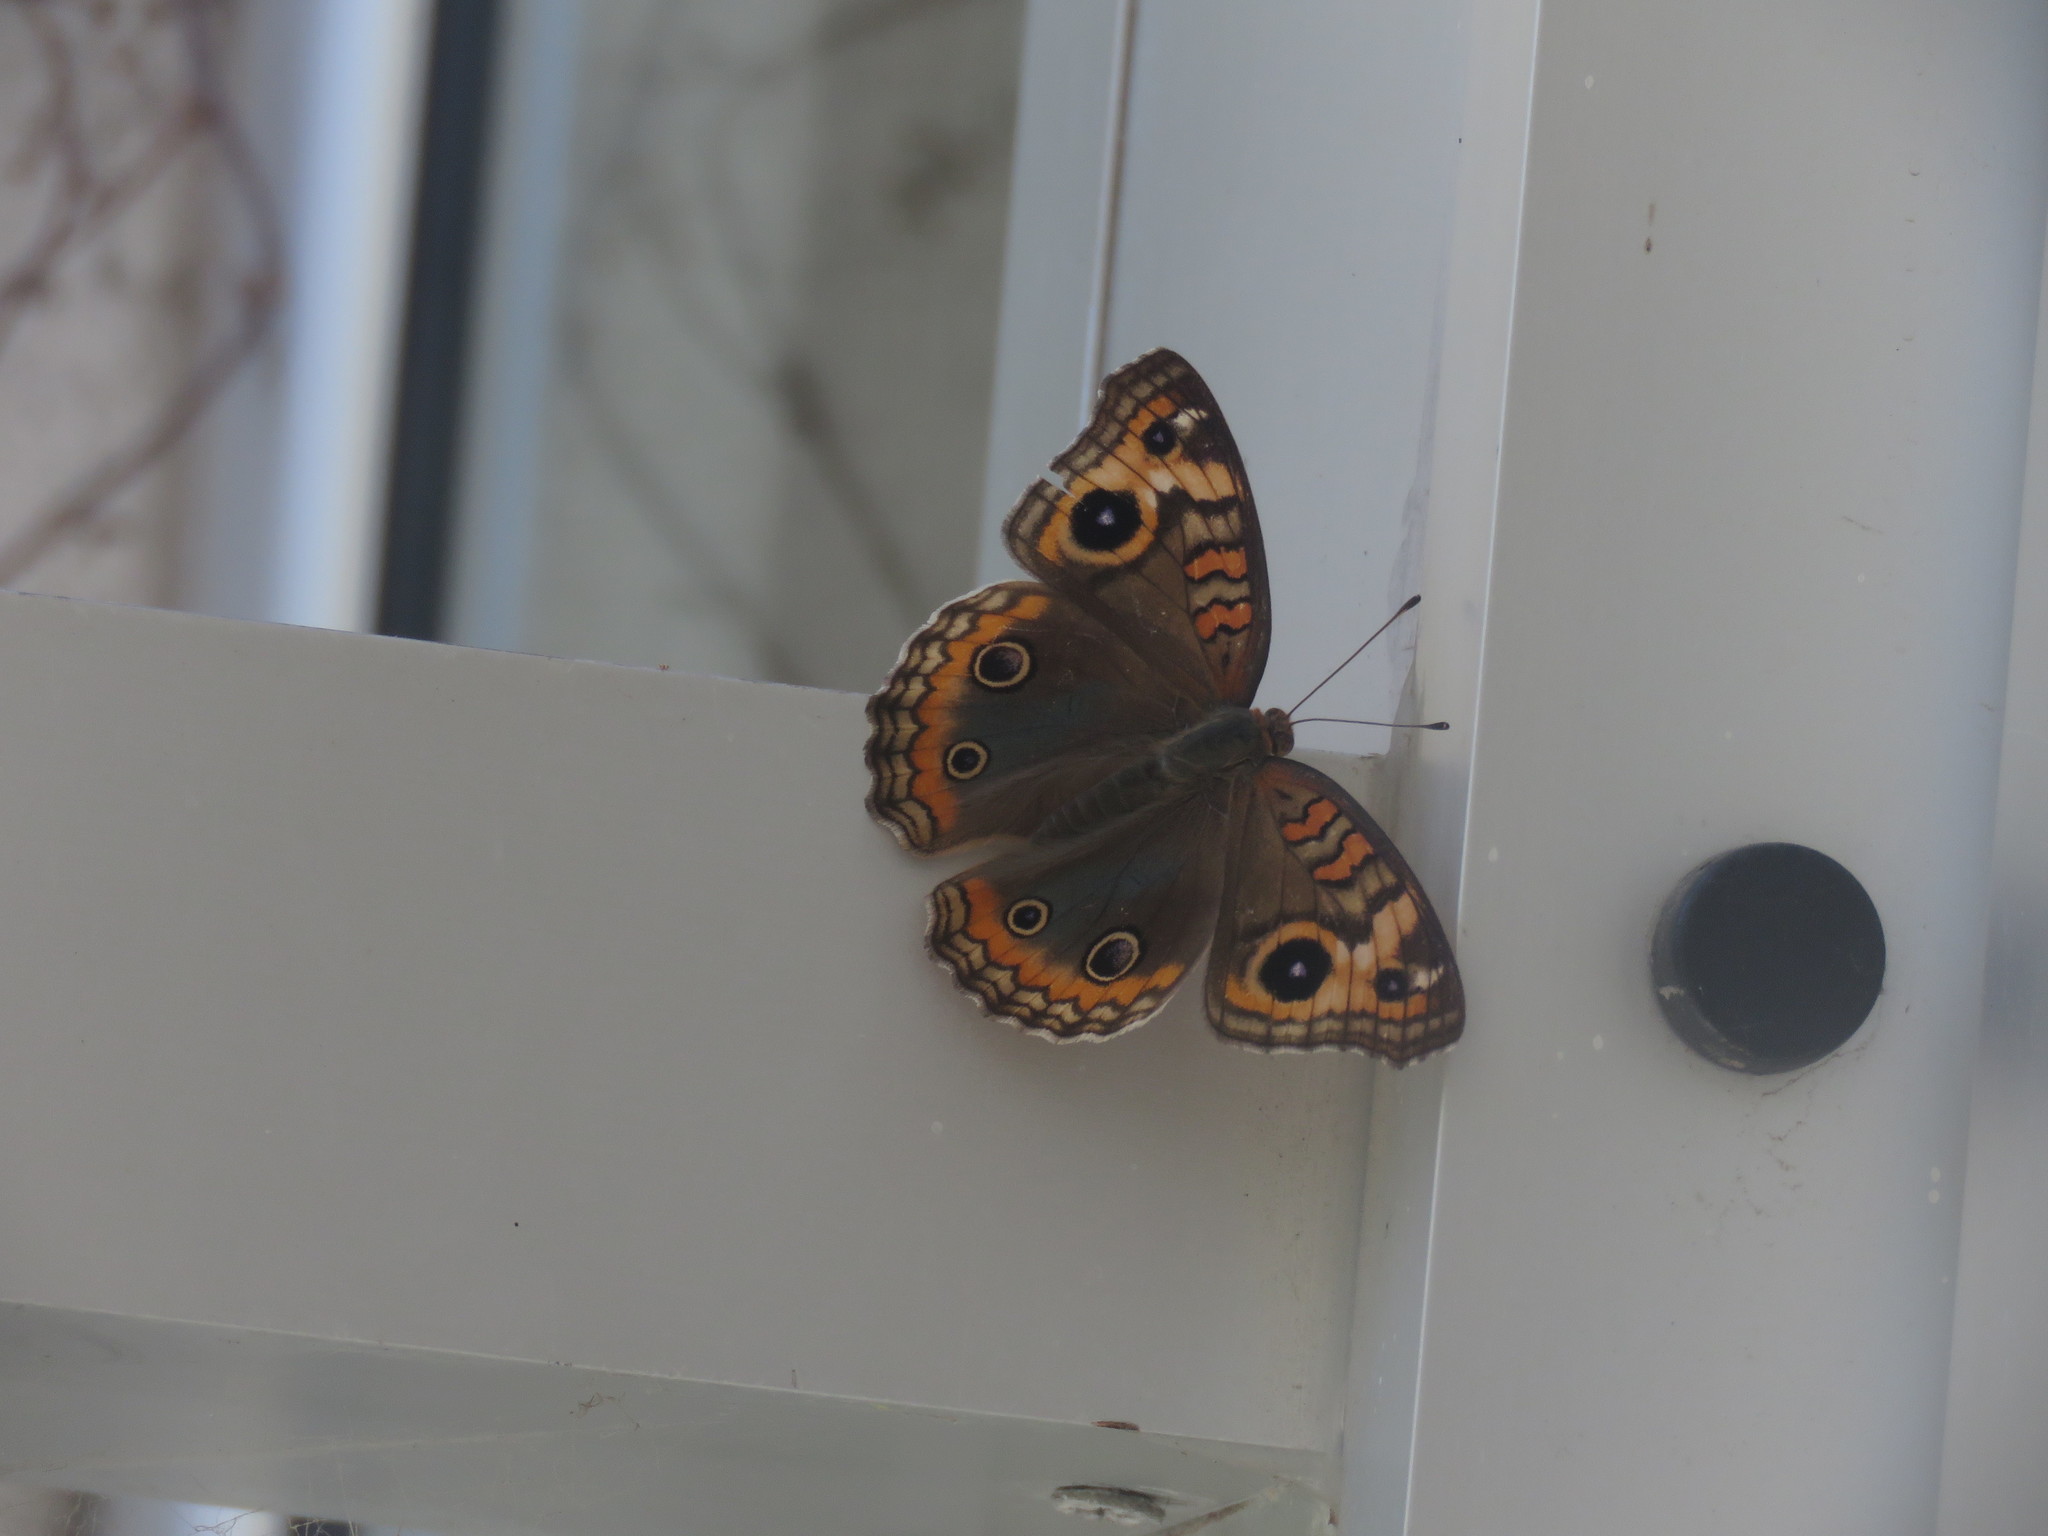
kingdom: Animalia
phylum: Arthropoda
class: Insecta
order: Lepidoptera
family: Nymphalidae
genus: Junonia
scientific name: Junonia lavinia
